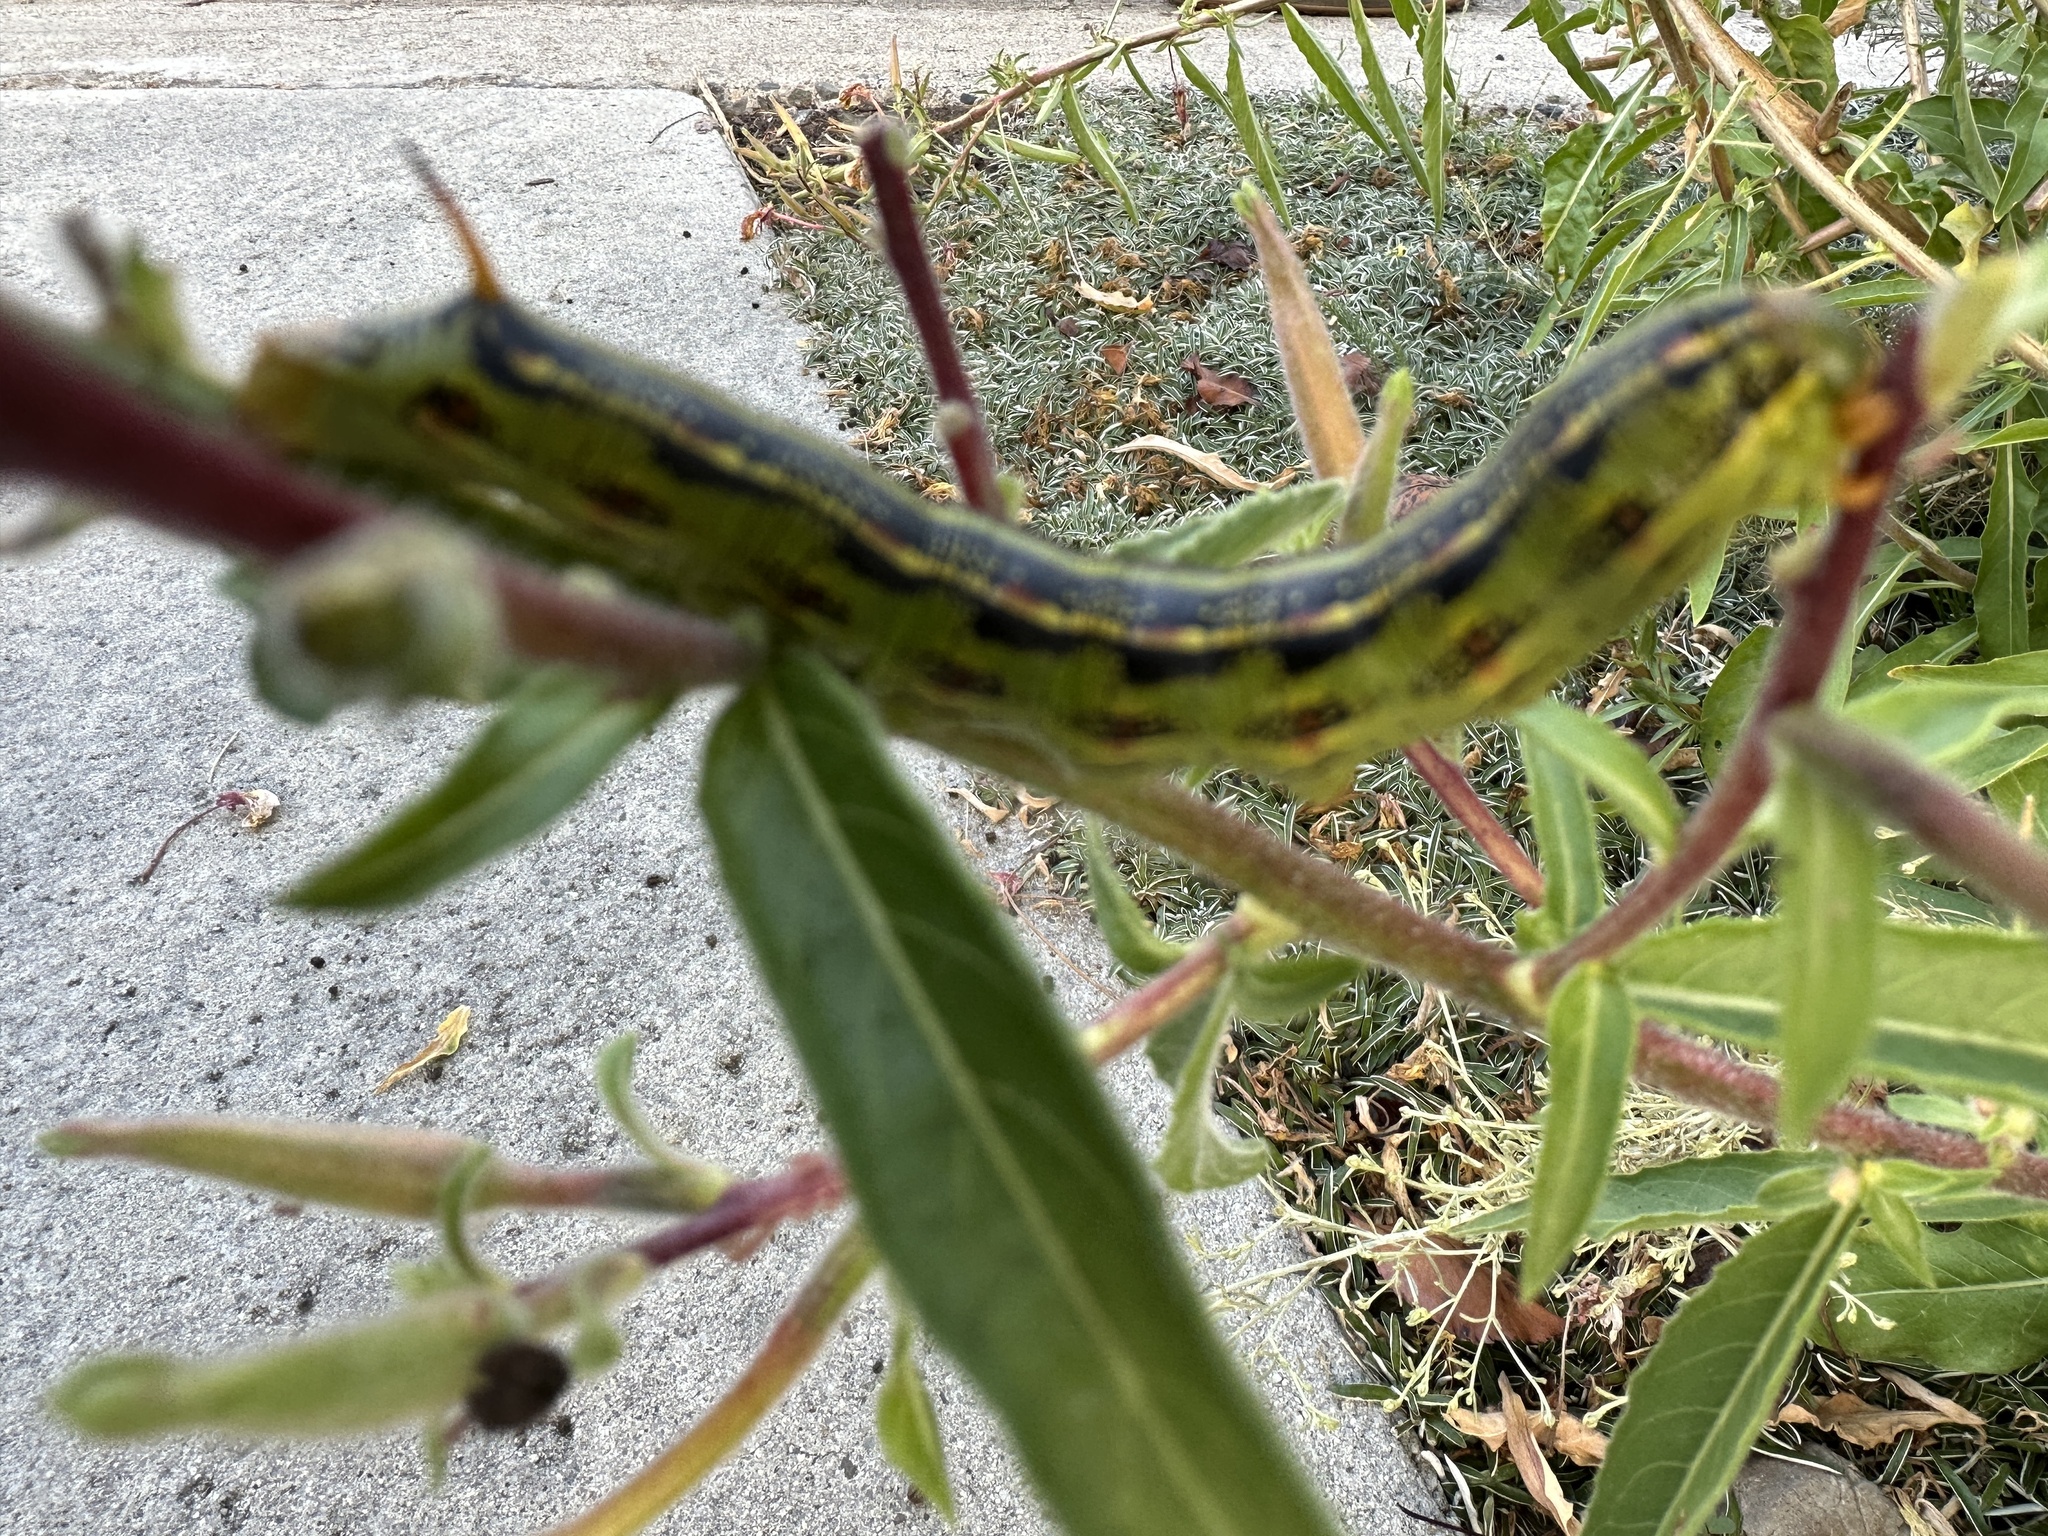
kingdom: Animalia
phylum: Arthropoda
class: Insecta
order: Lepidoptera
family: Sphingidae
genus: Hyles
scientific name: Hyles lineata
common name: White-lined sphinx
